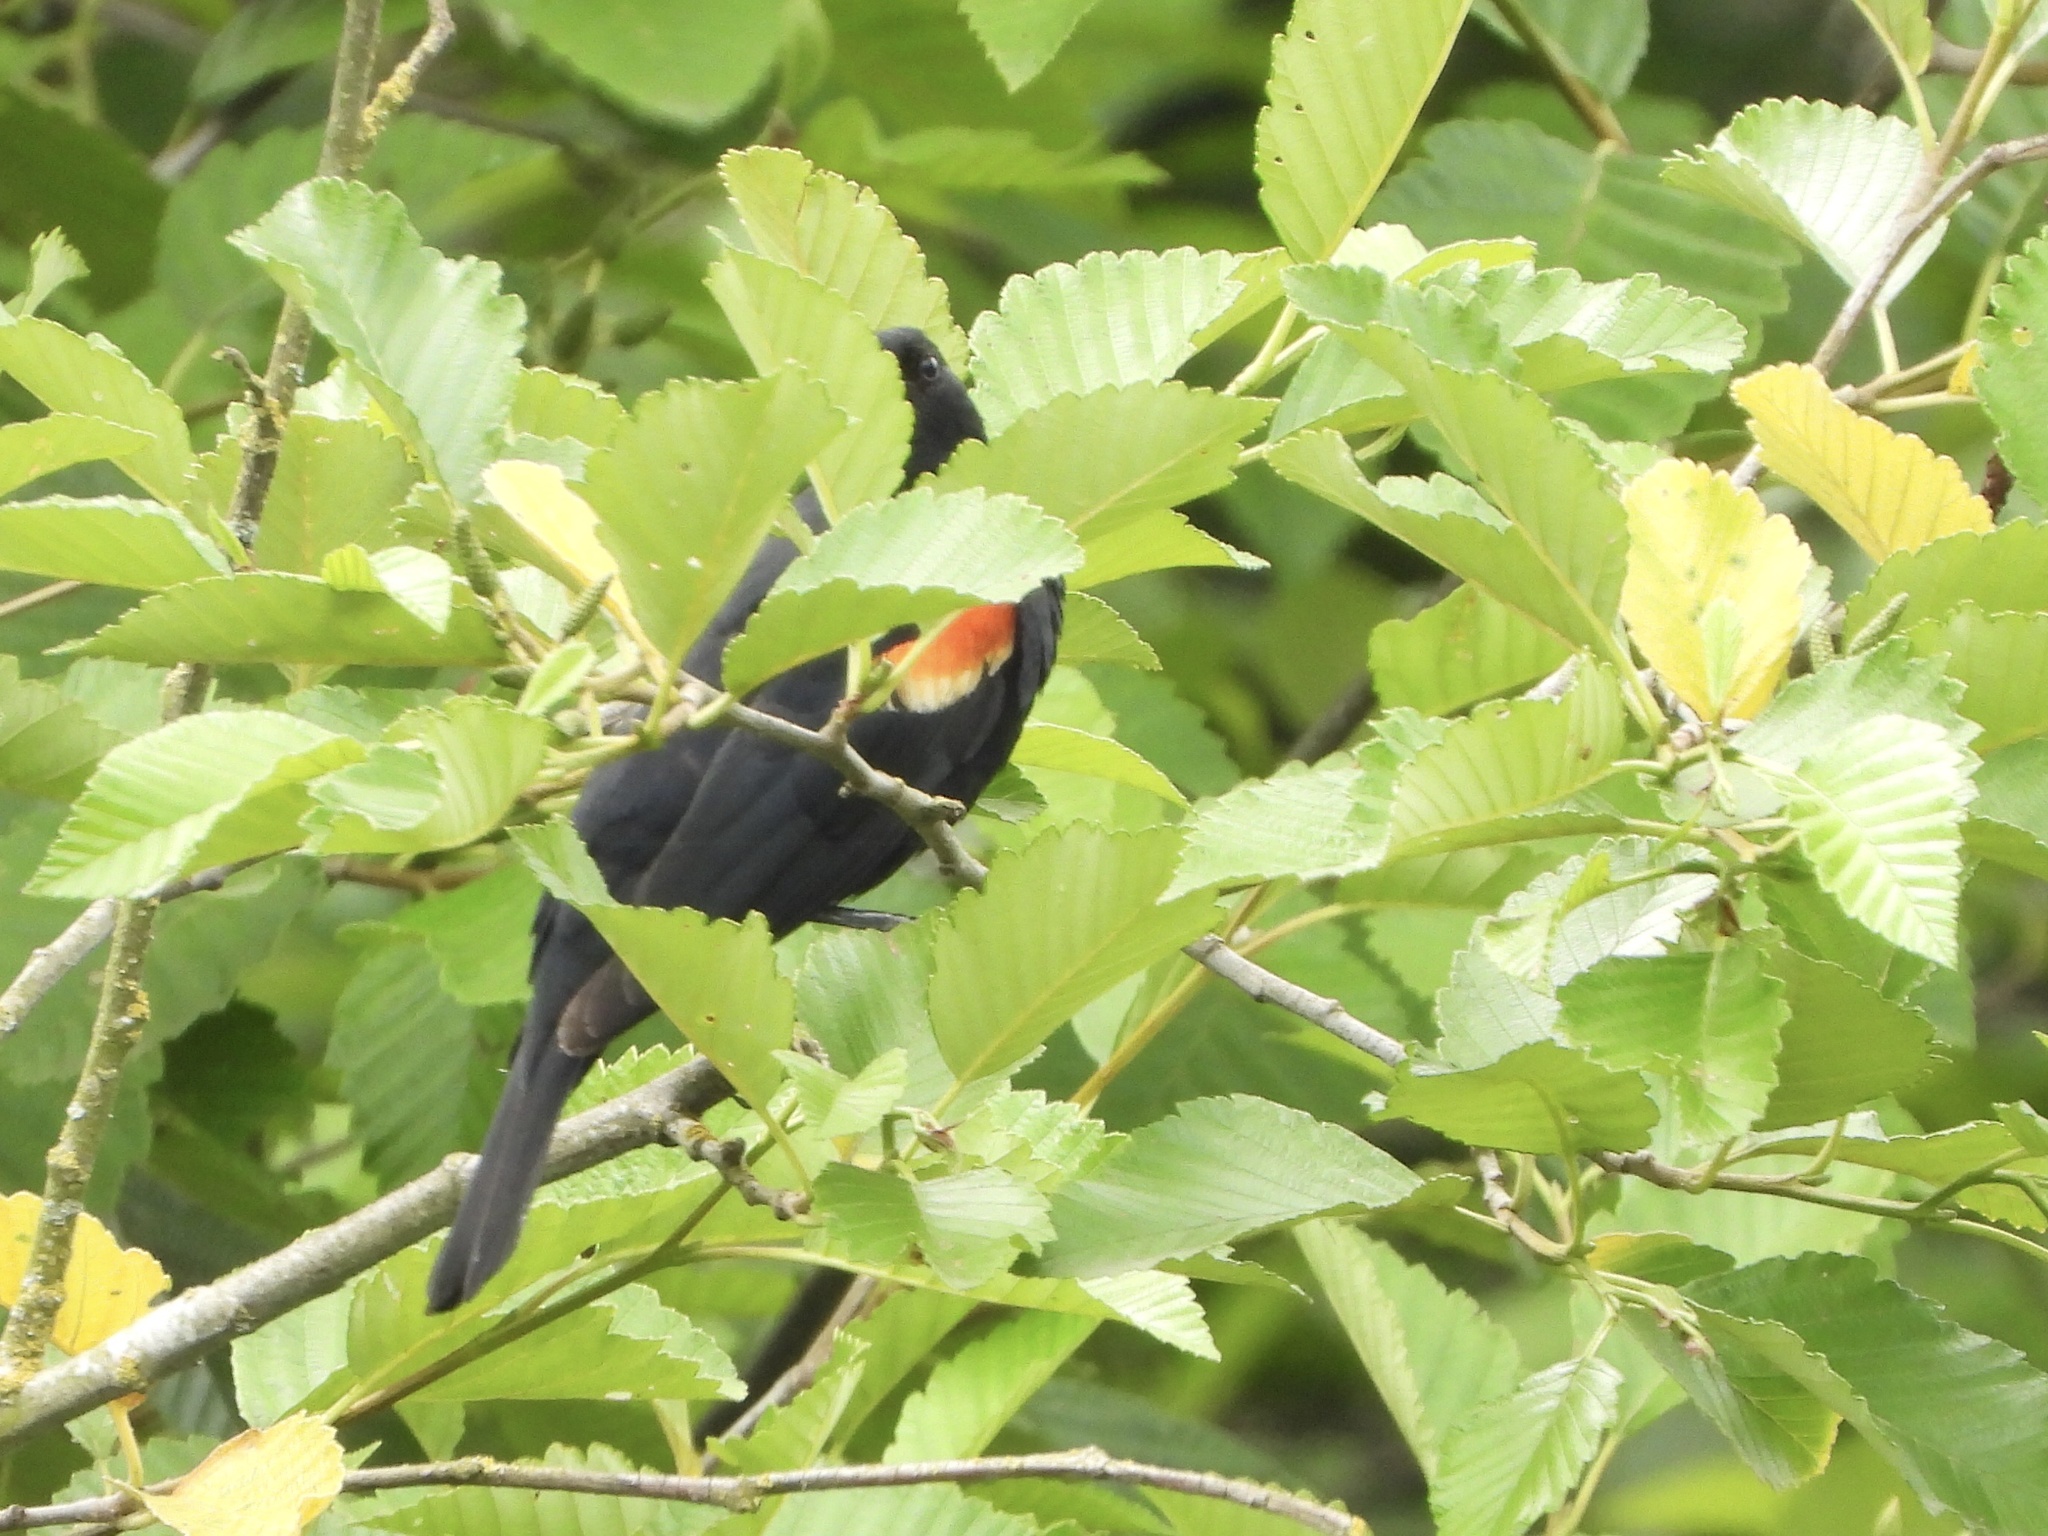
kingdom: Animalia
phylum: Chordata
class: Aves
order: Passeriformes
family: Icteridae
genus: Agelaius
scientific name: Agelaius phoeniceus
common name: Red-winged blackbird
